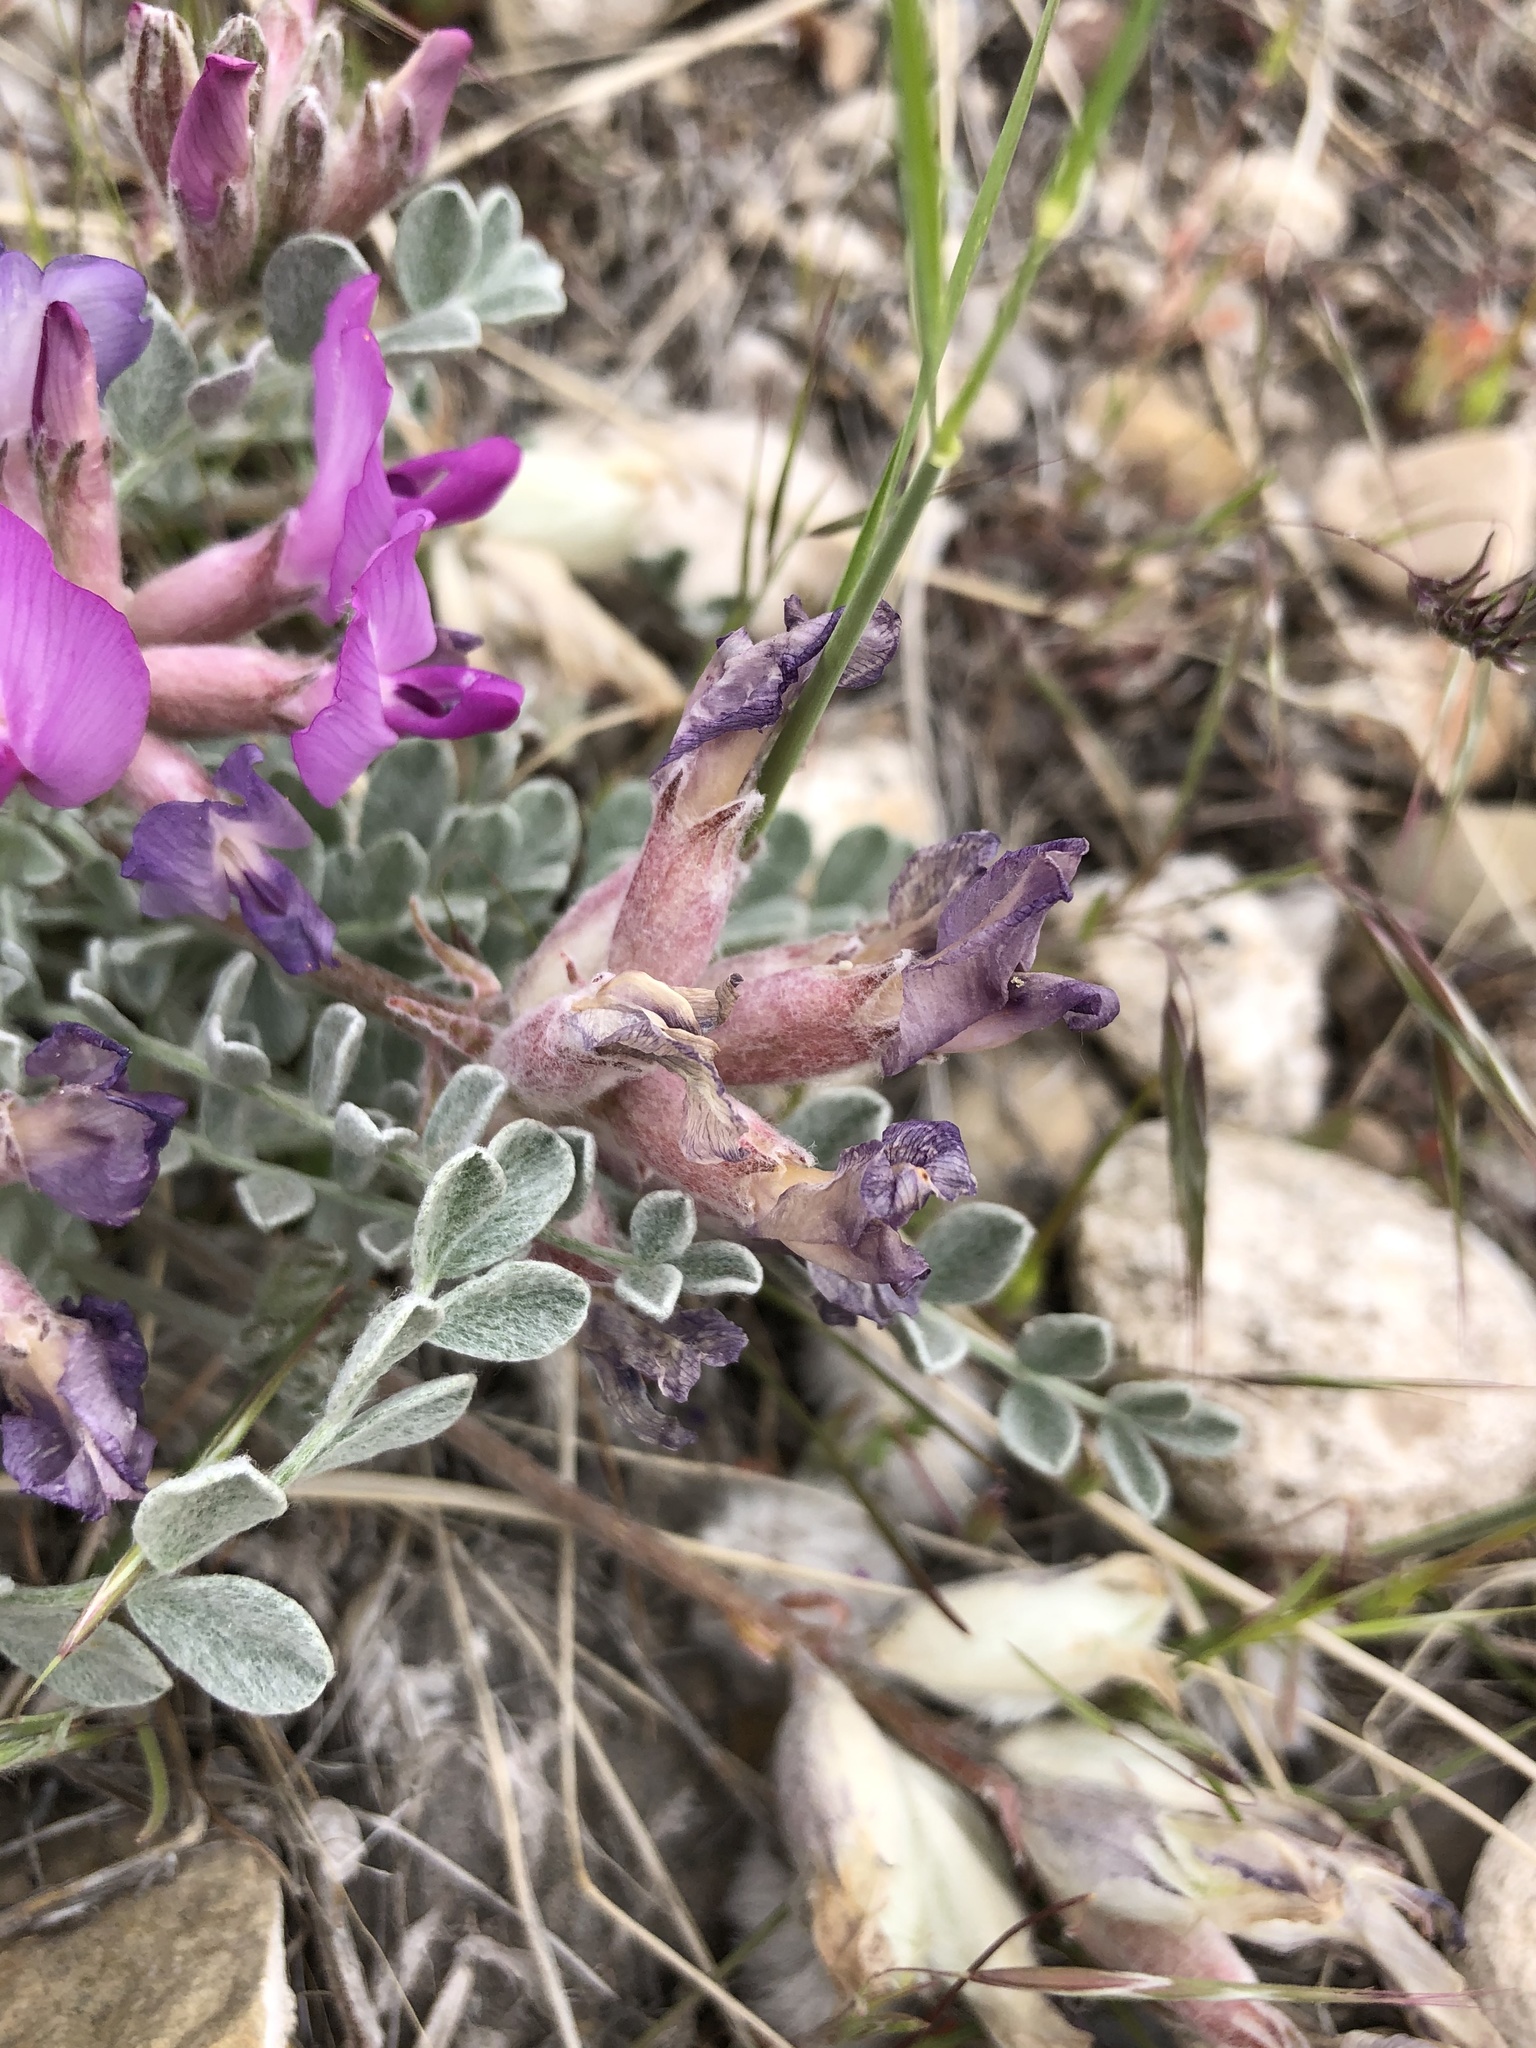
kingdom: Plantae
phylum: Tracheophyta
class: Magnoliopsida
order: Fabales
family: Fabaceae
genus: Astragalus
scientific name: Astragalus utahensis
